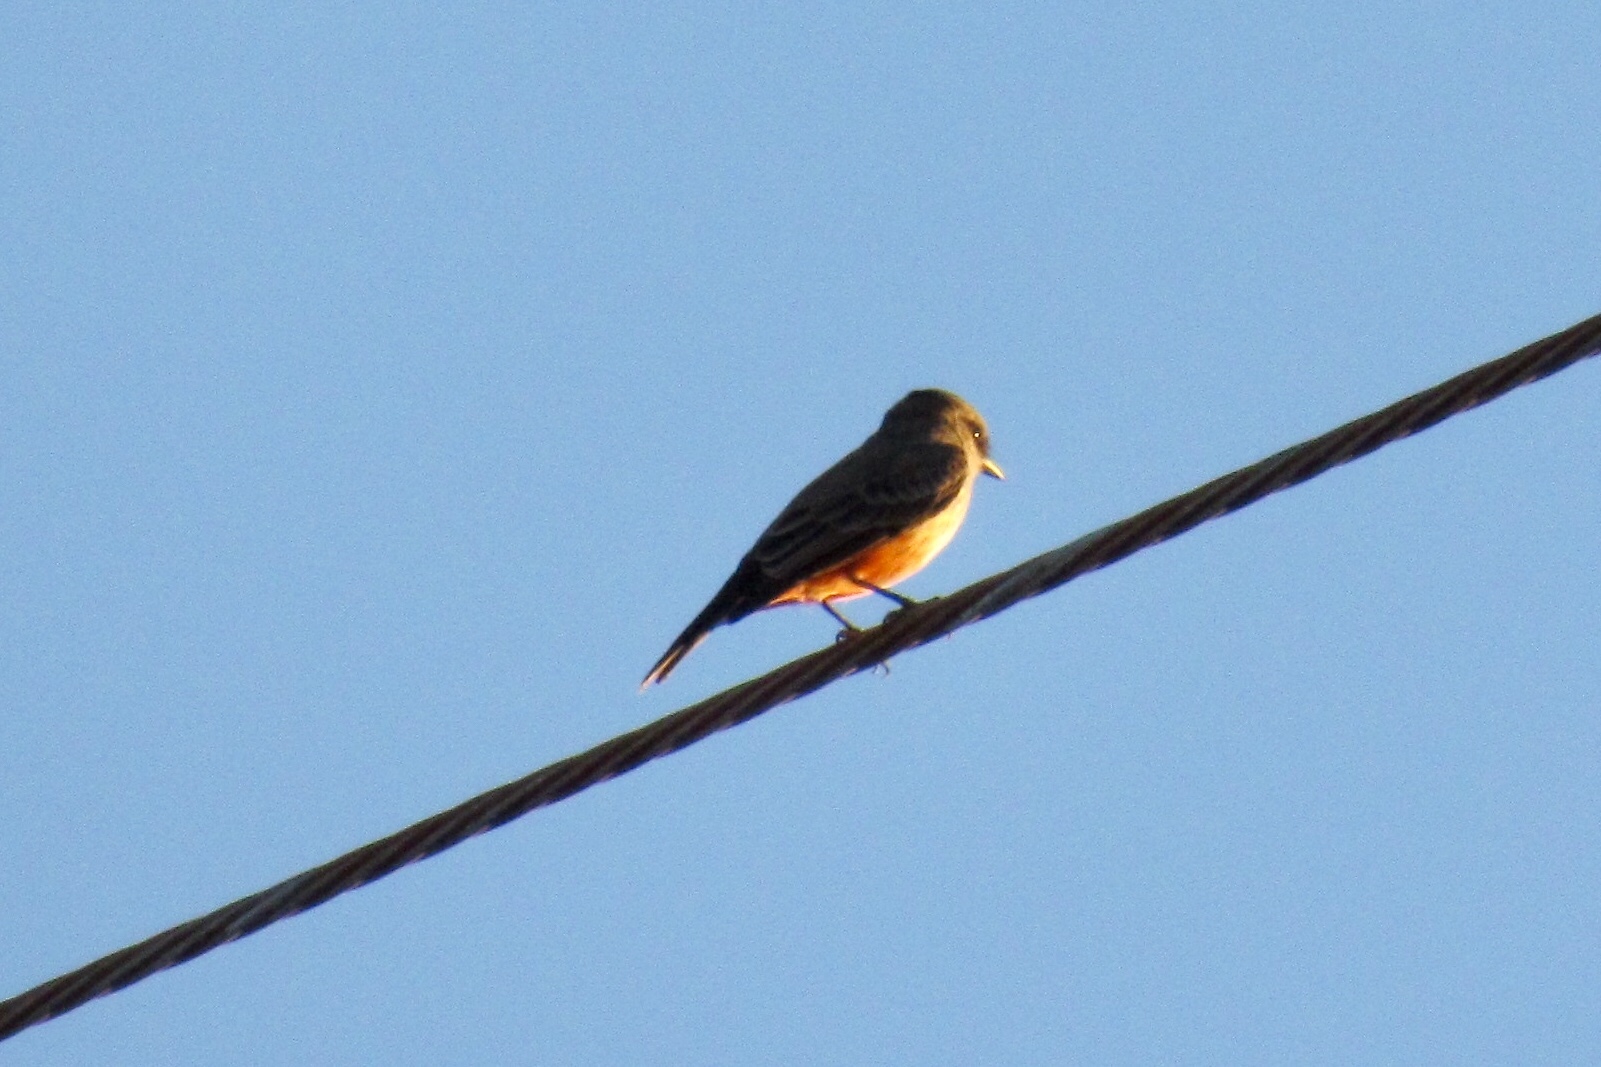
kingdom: Animalia
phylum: Chordata
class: Aves
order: Passeriformes
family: Tyrannidae
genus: Pyrocephalus
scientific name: Pyrocephalus rubinus
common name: Vermilion flycatcher
